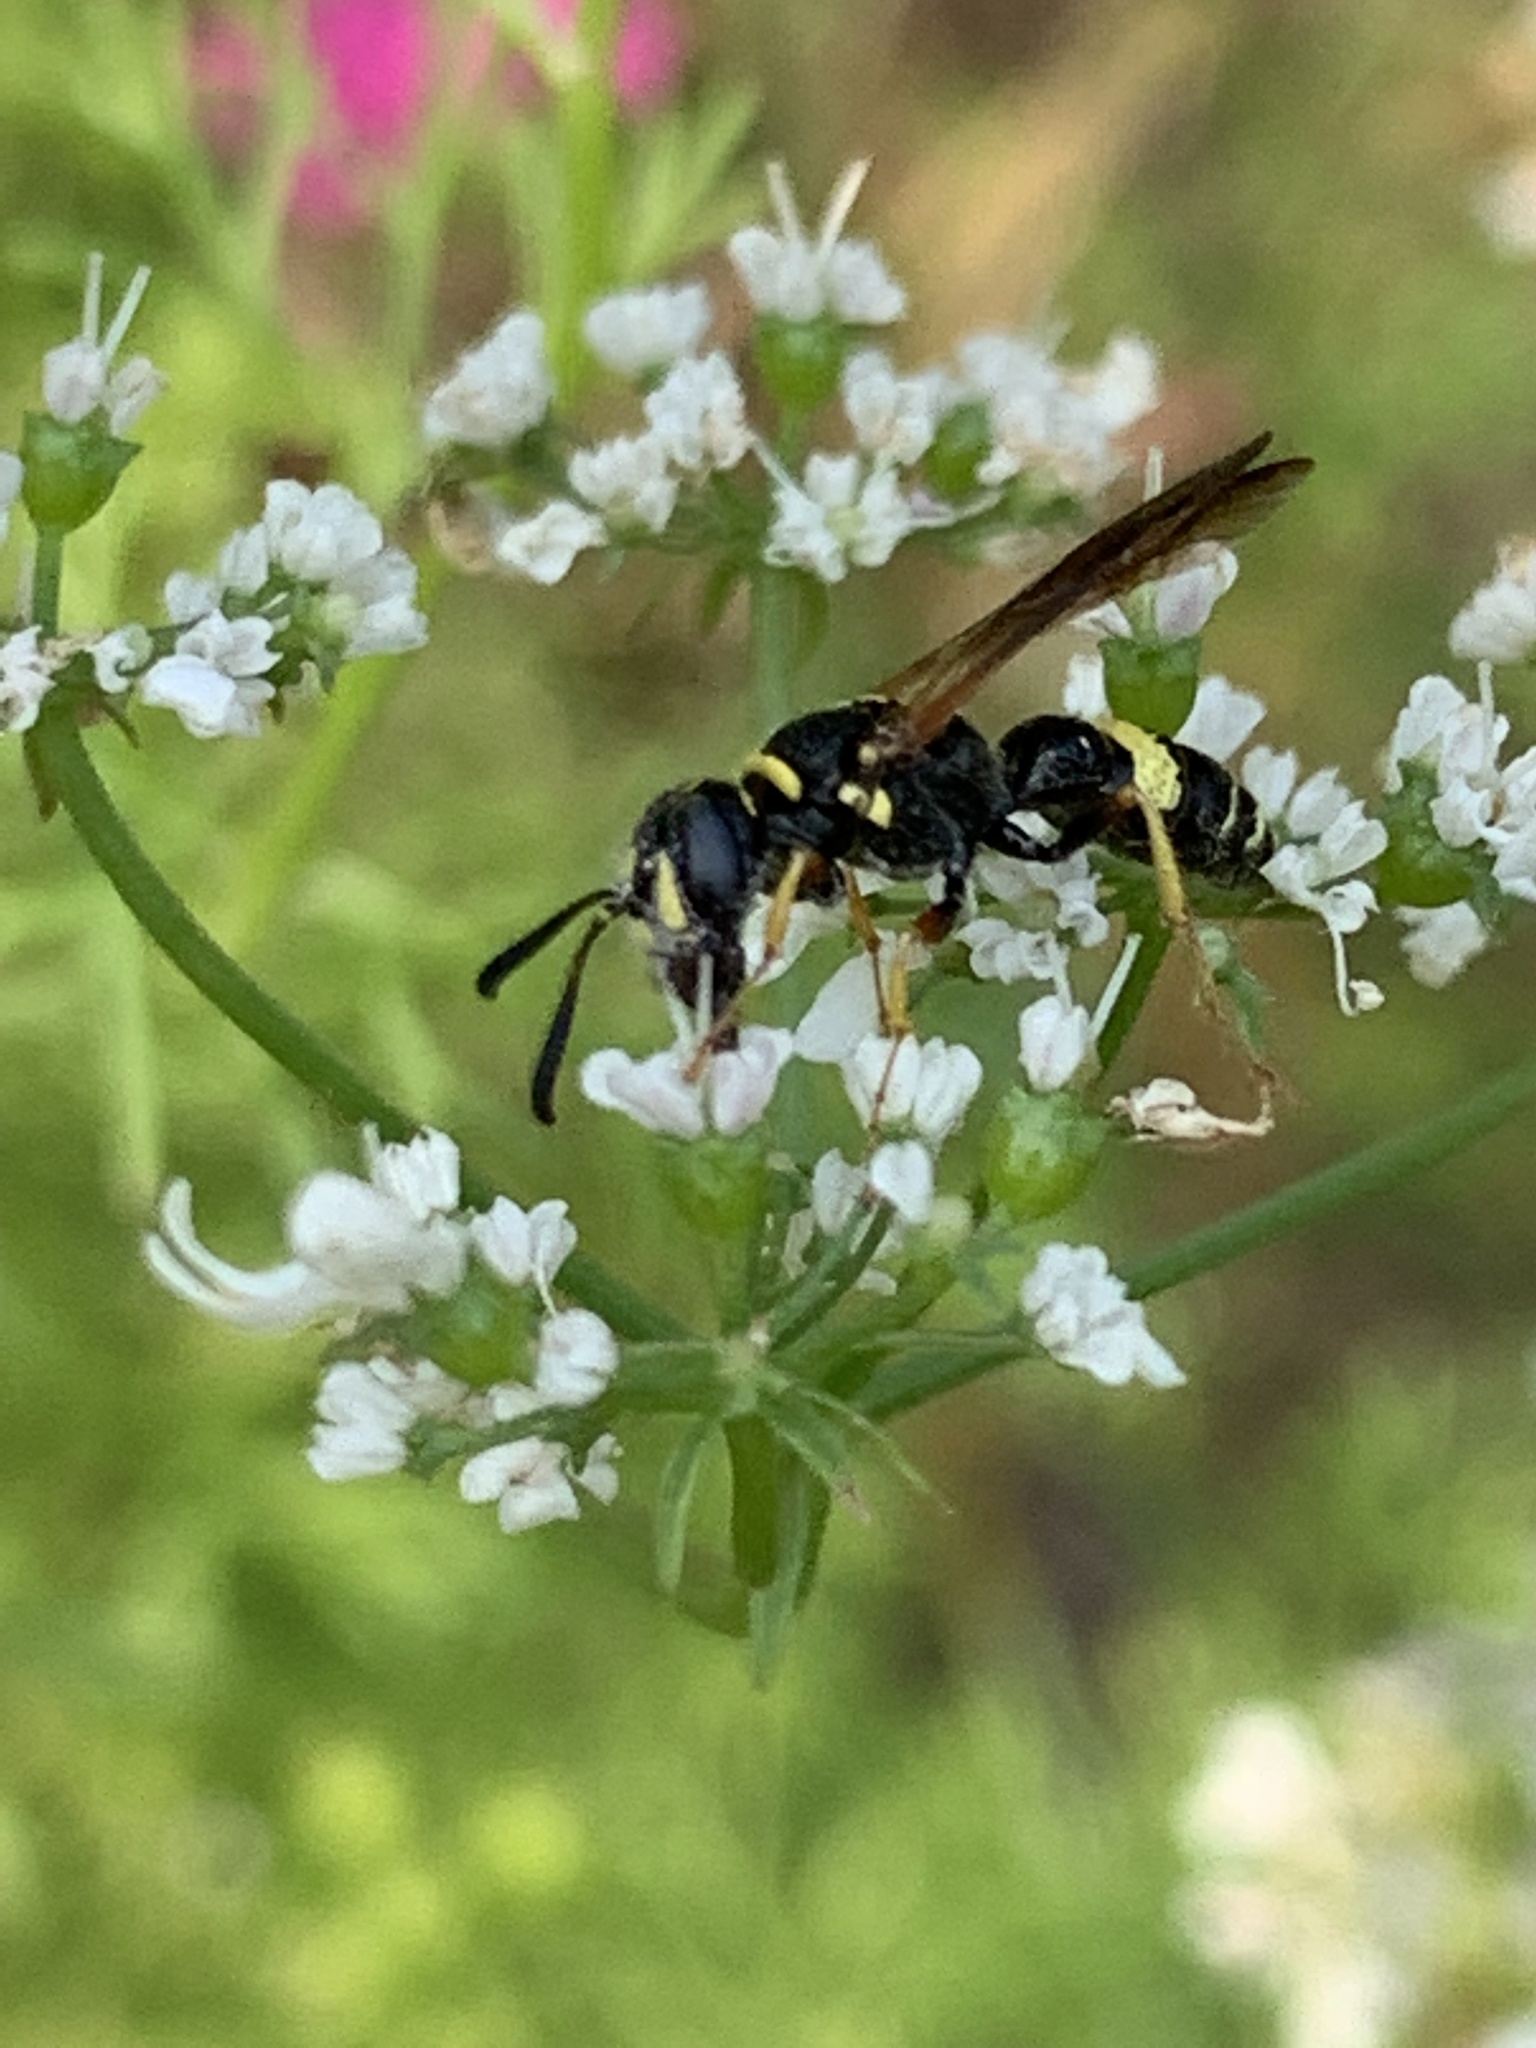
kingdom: Animalia
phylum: Arthropoda
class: Insecta
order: Hymenoptera
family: Crabronidae
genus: Philanthus
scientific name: Philanthus gibbosus
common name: Humped beewolf
